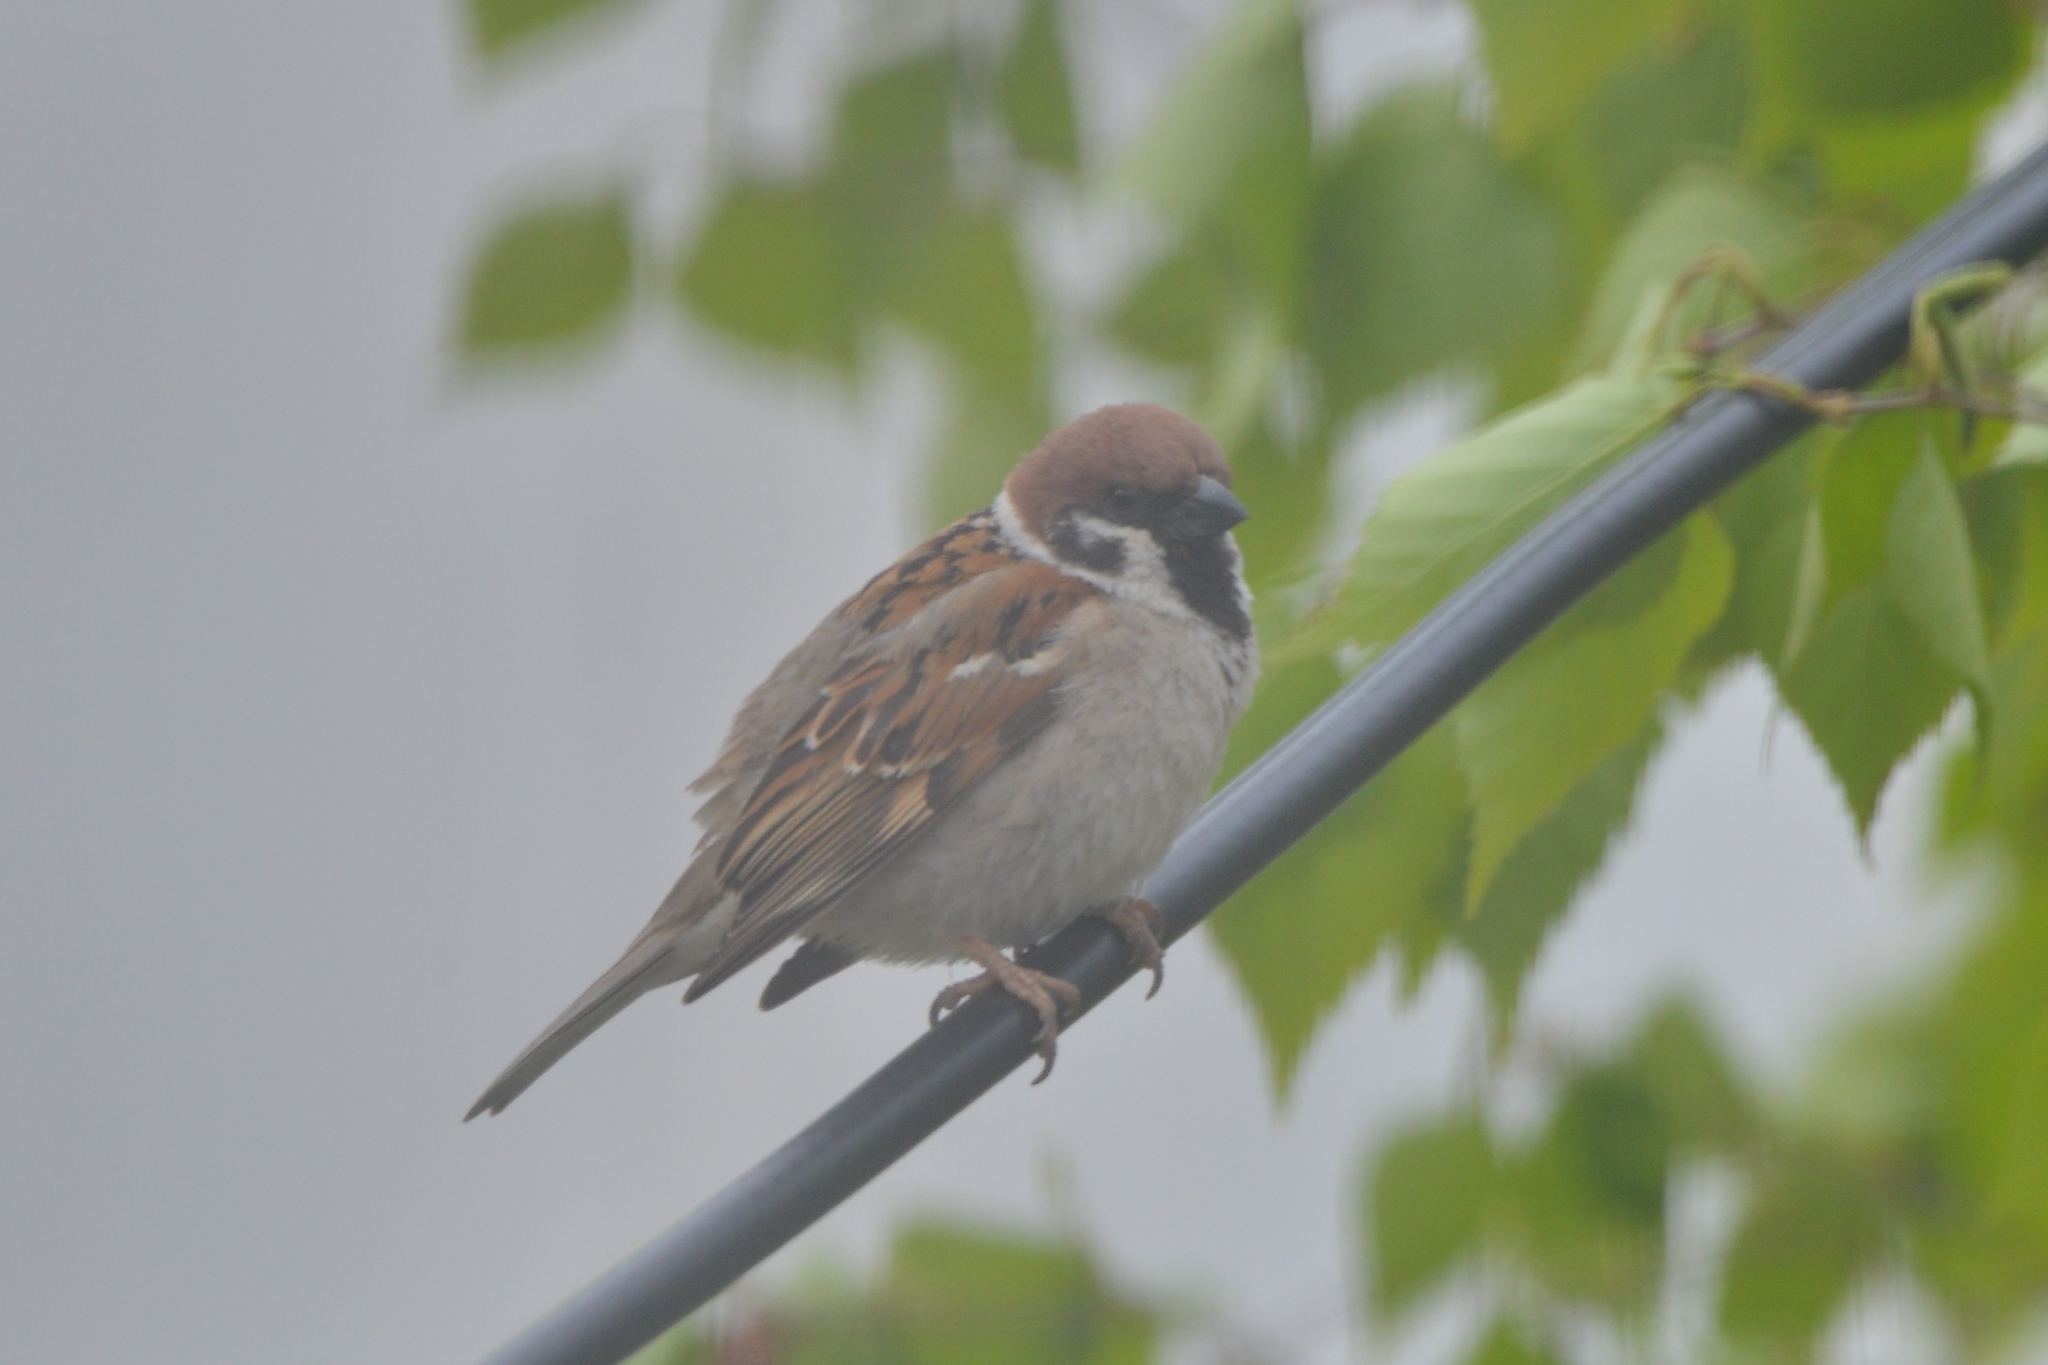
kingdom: Animalia
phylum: Chordata
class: Aves
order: Passeriformes
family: Passeridae
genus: Passer
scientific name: Passer montanus
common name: Eurasian tree sparrow
